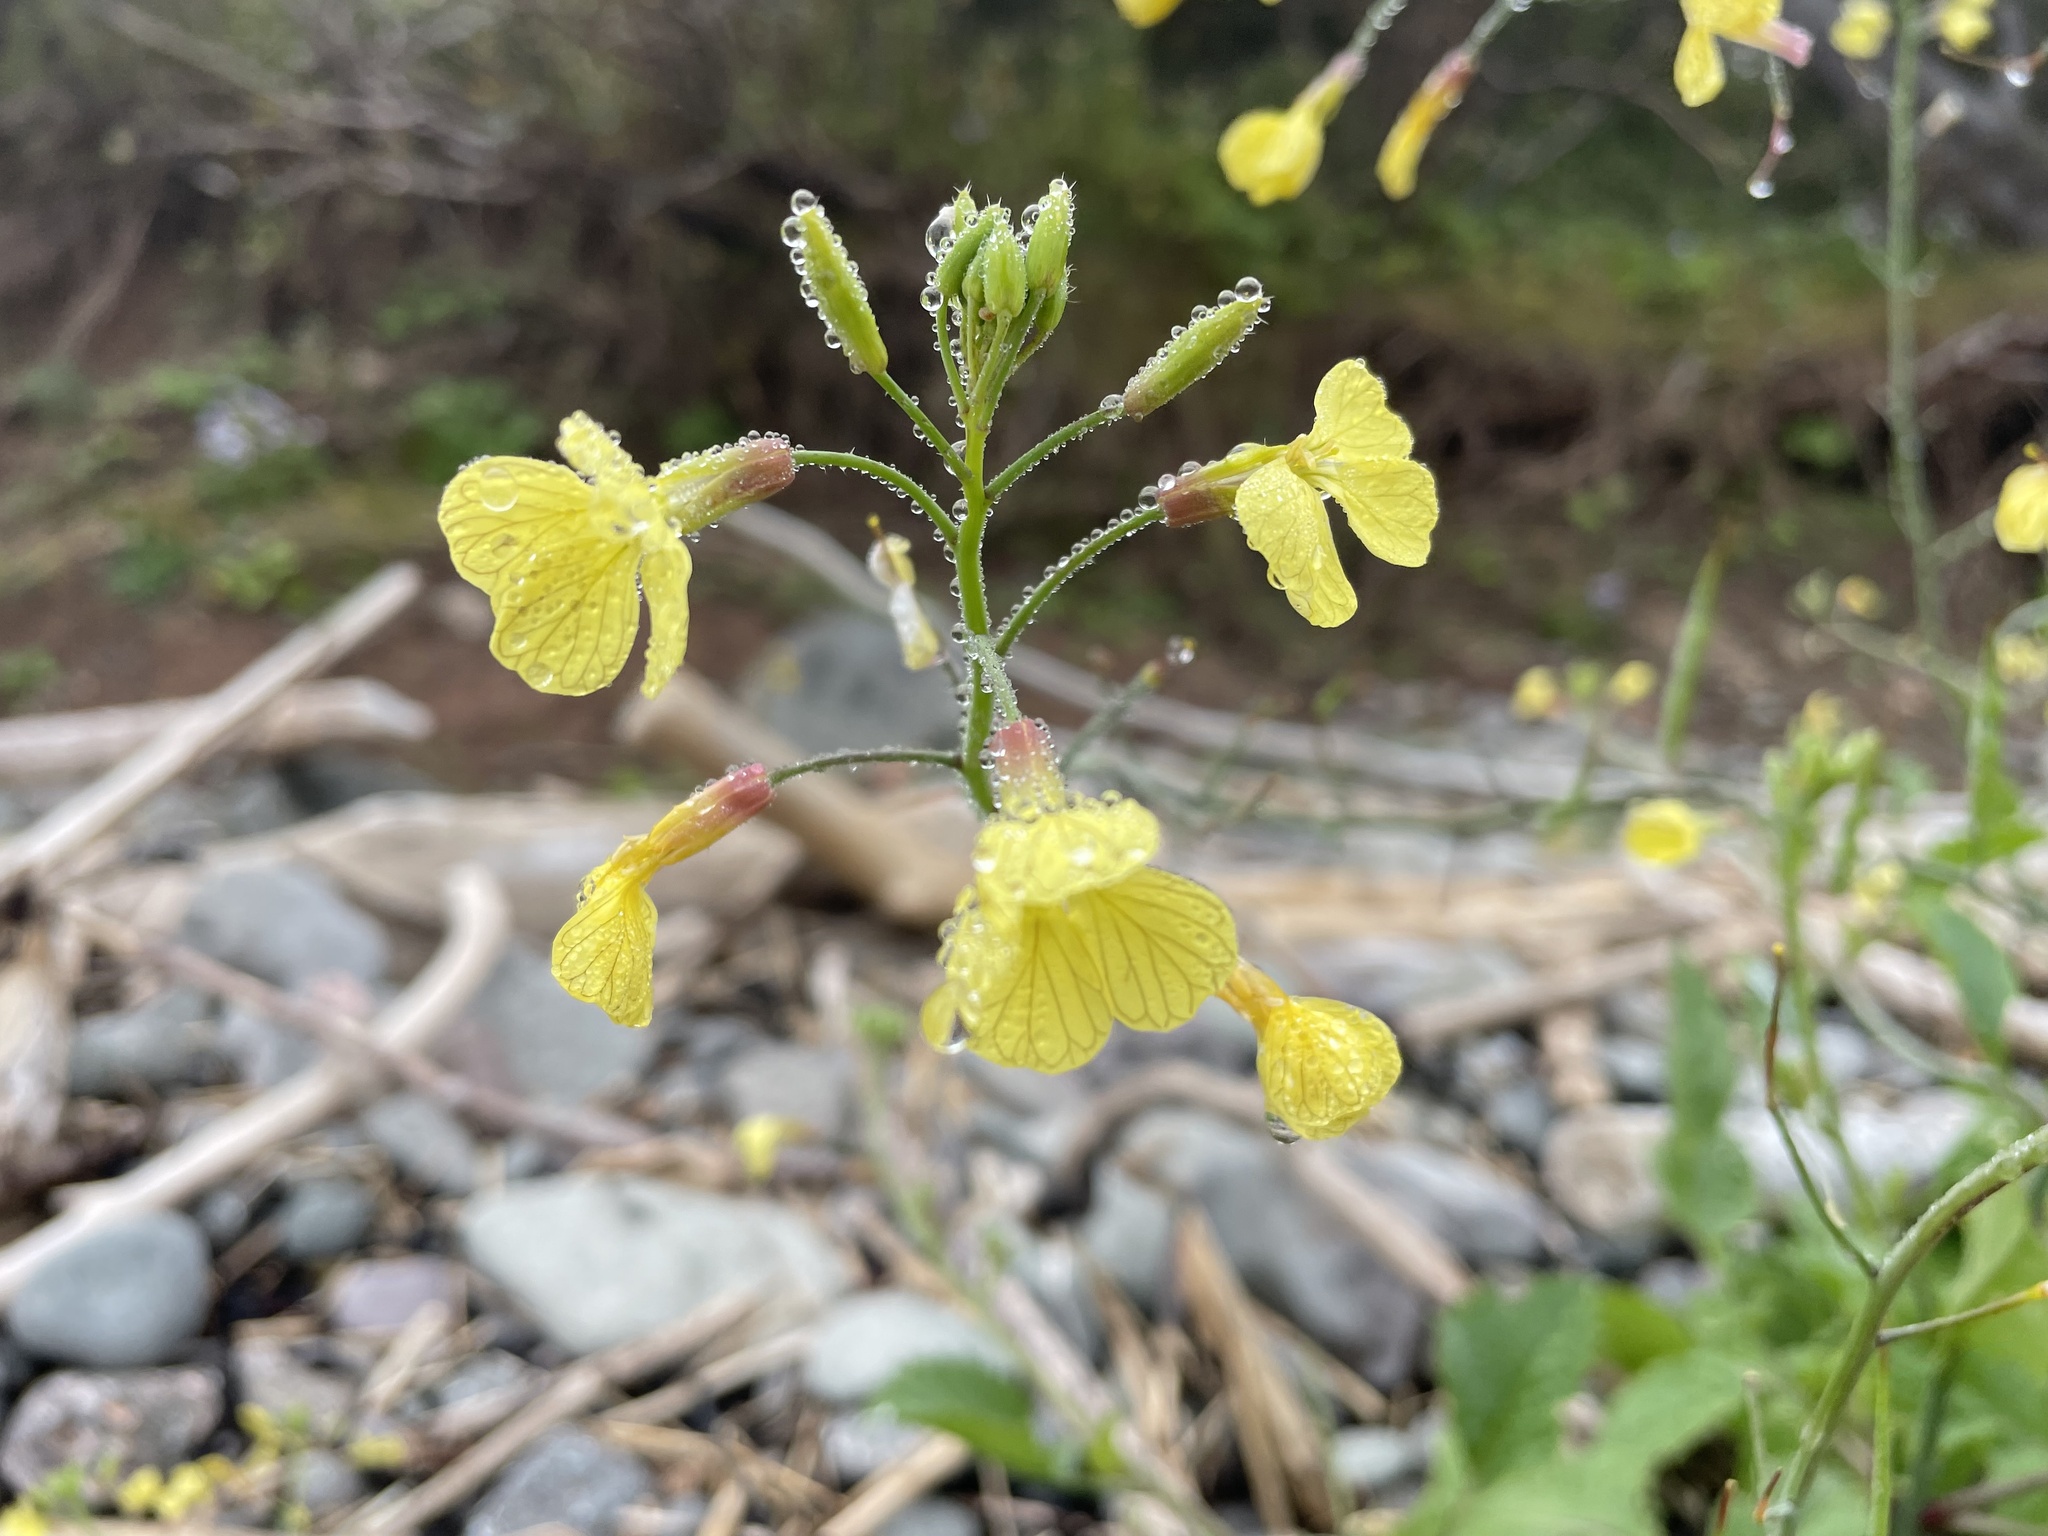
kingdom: Plantae
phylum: Tracheophyta
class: Magnoliopsida
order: Brassicales
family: Brassicaceae
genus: Raphanus
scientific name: Raphanus raphanistrum
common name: Wild radish
